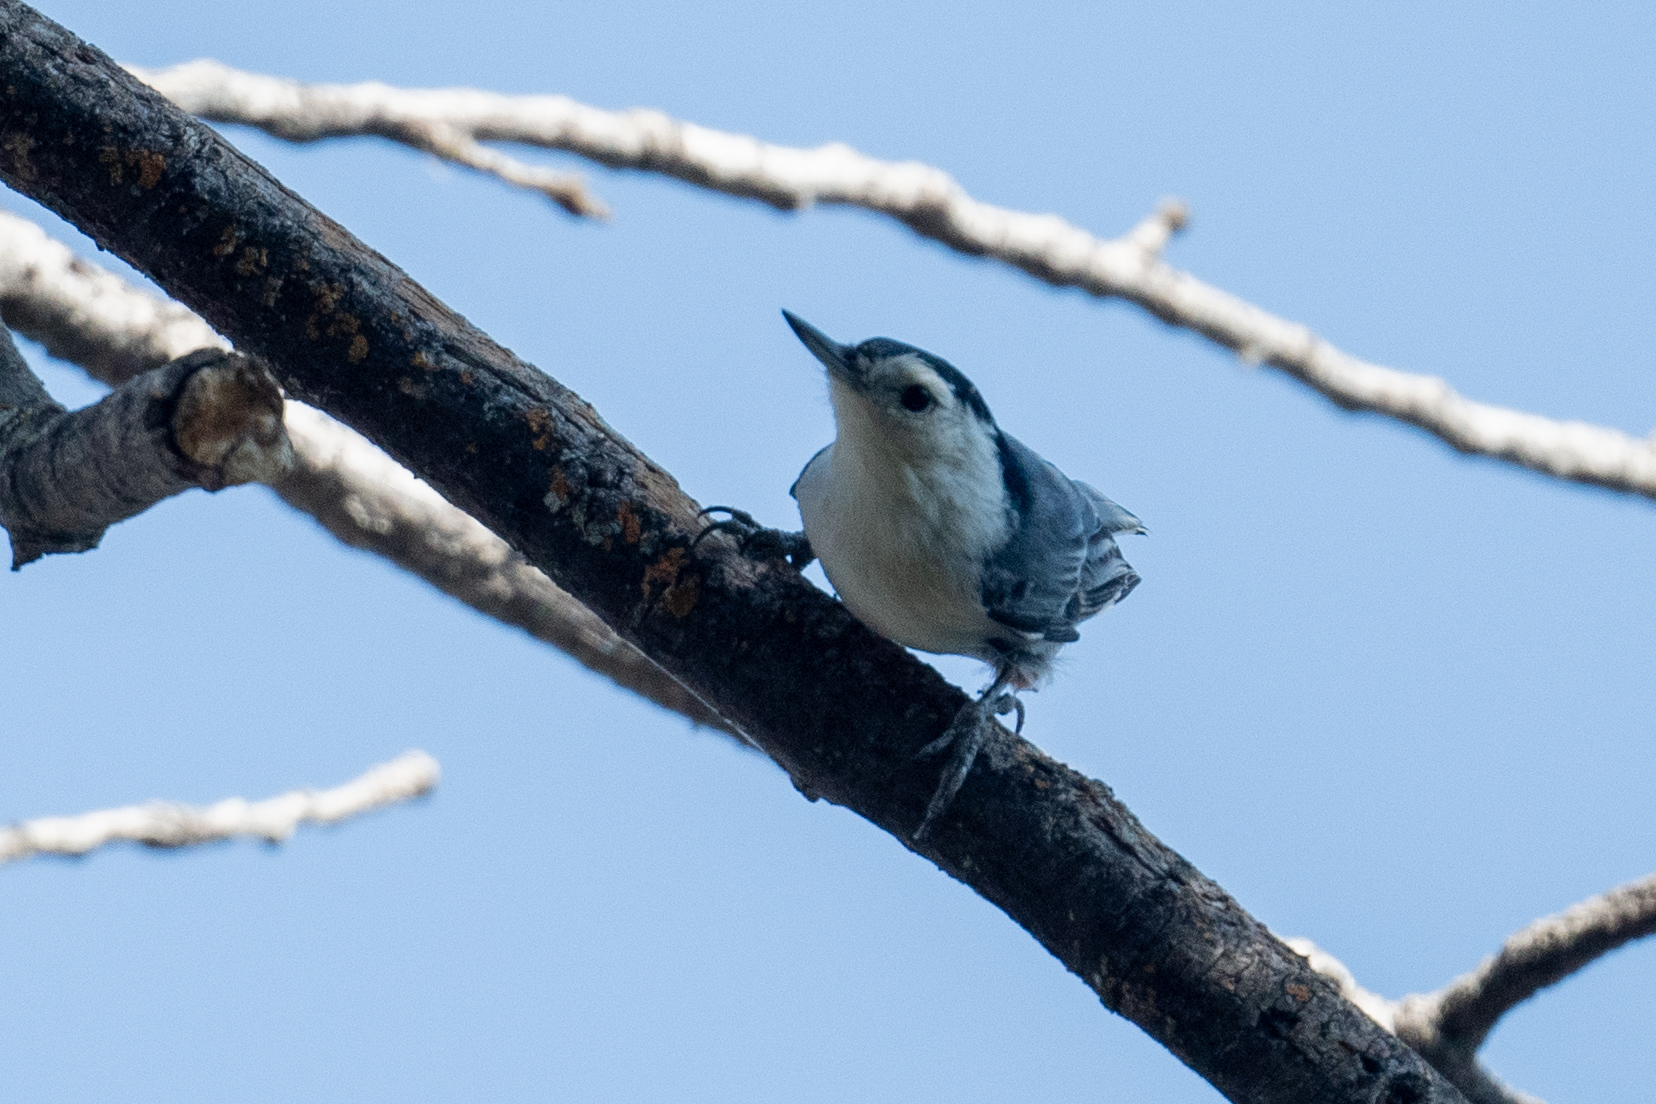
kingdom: Animalia
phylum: Chordata
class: Aves
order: Passeriformes
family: Sittidae
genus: Sitta
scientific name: Sitta carolinensis
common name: White-breasted nuthatch
